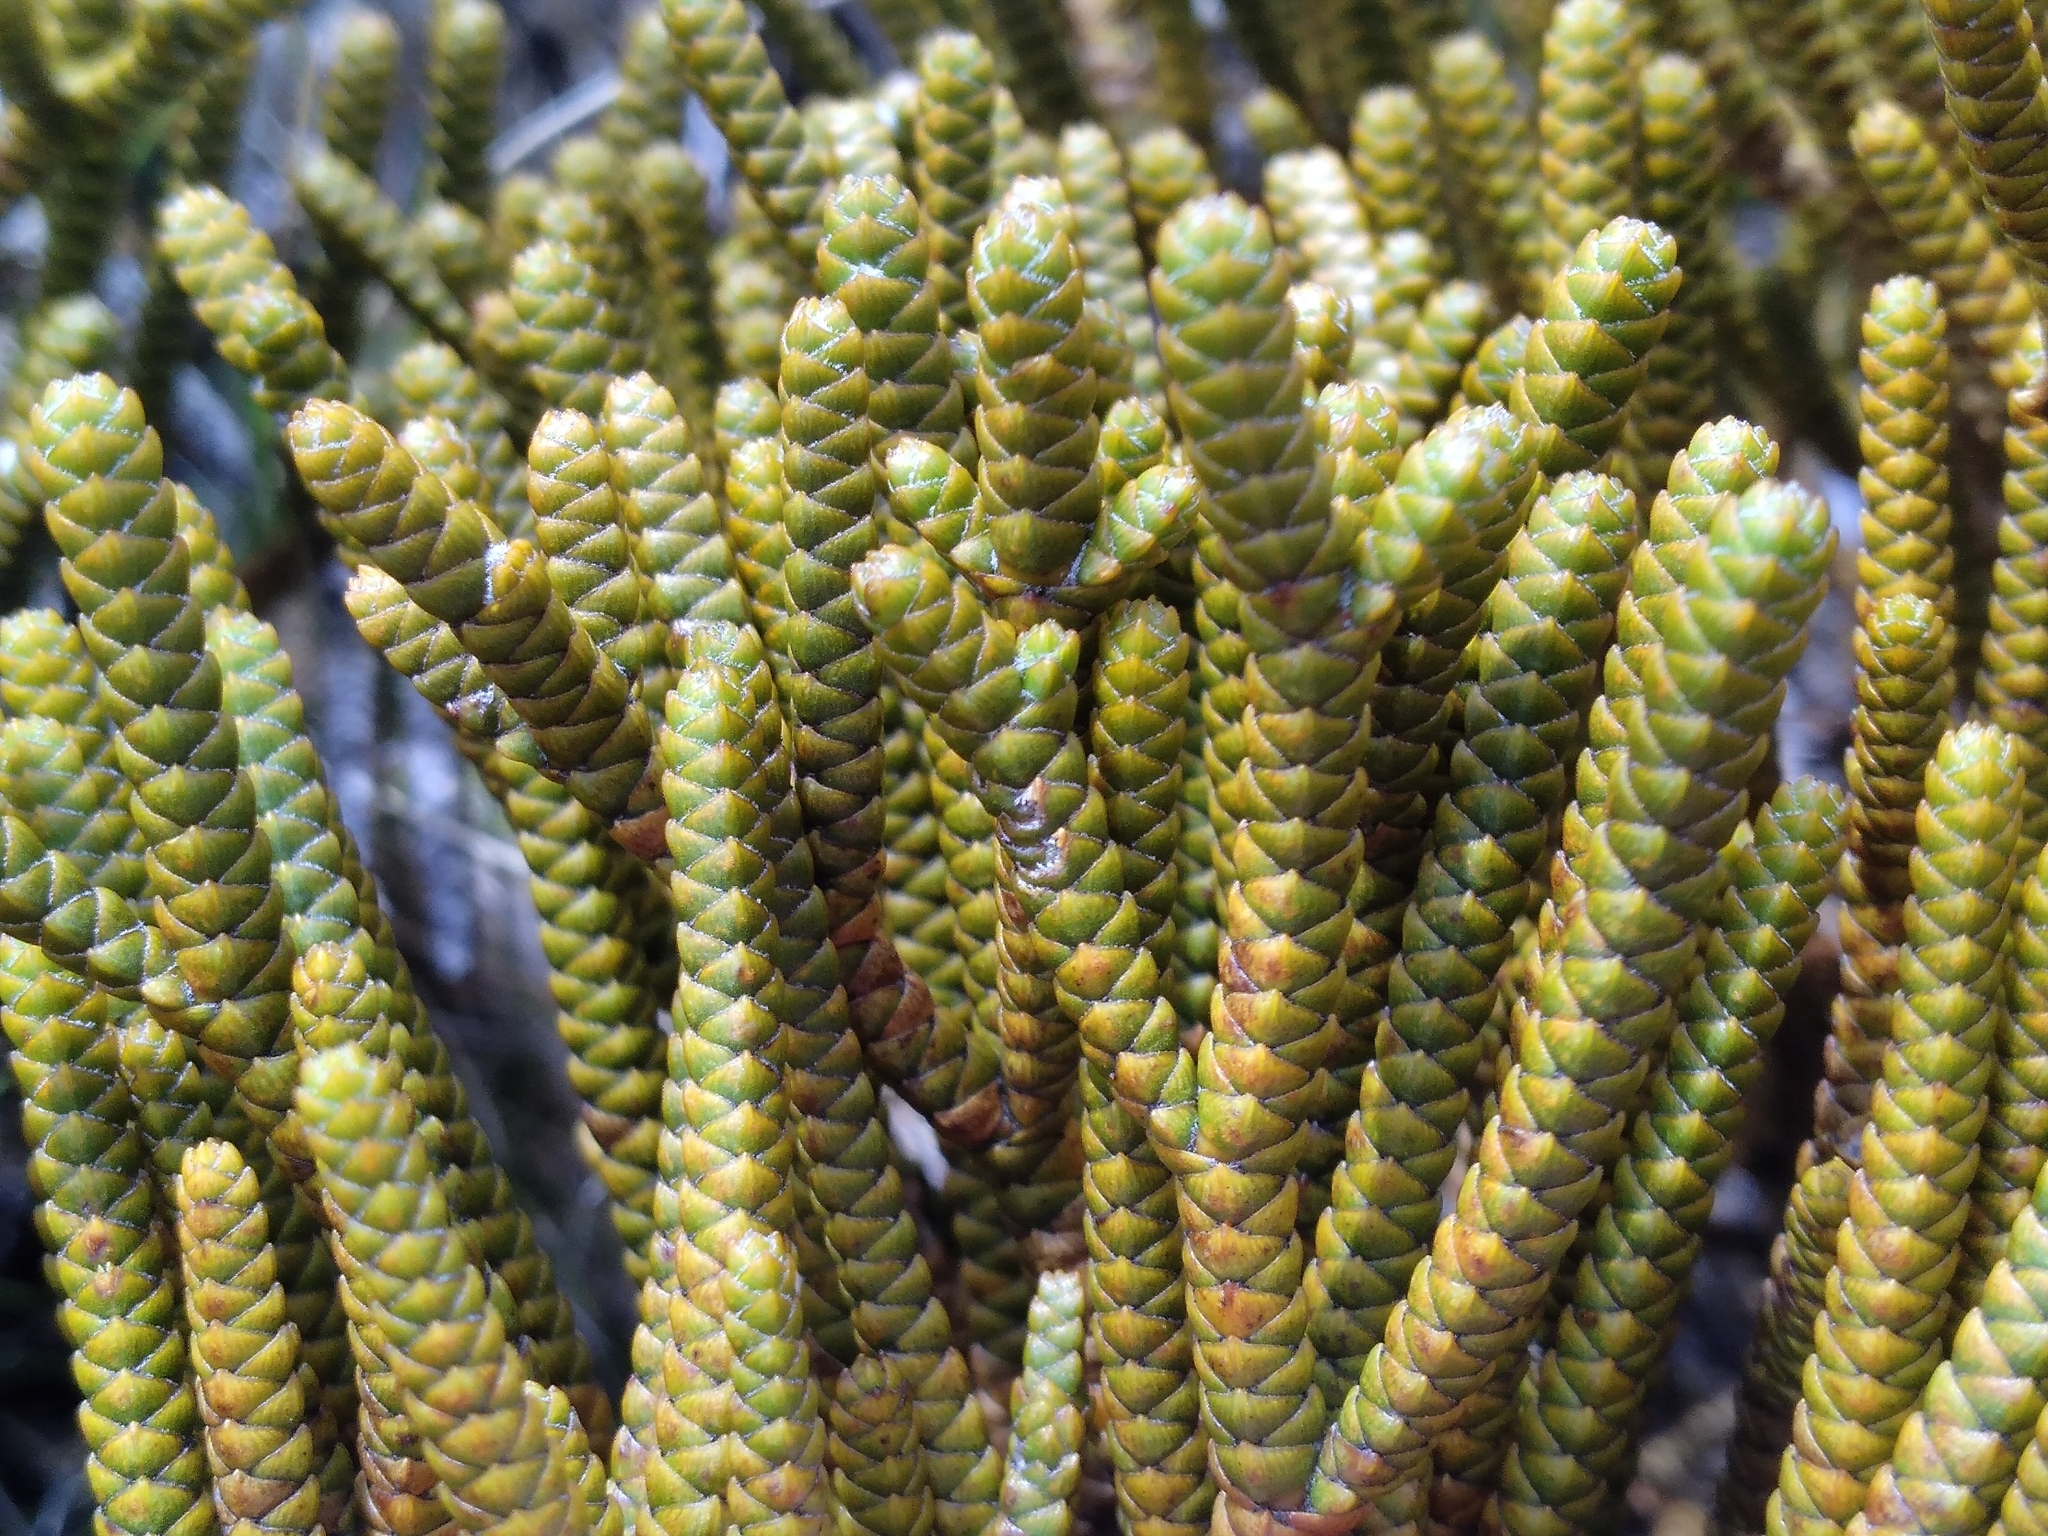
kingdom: Plantae
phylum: Tracheophyta
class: Magnoliopsida
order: Lamiales
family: Plantaginaceae
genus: Veronica
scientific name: Veronica lycopodioides
